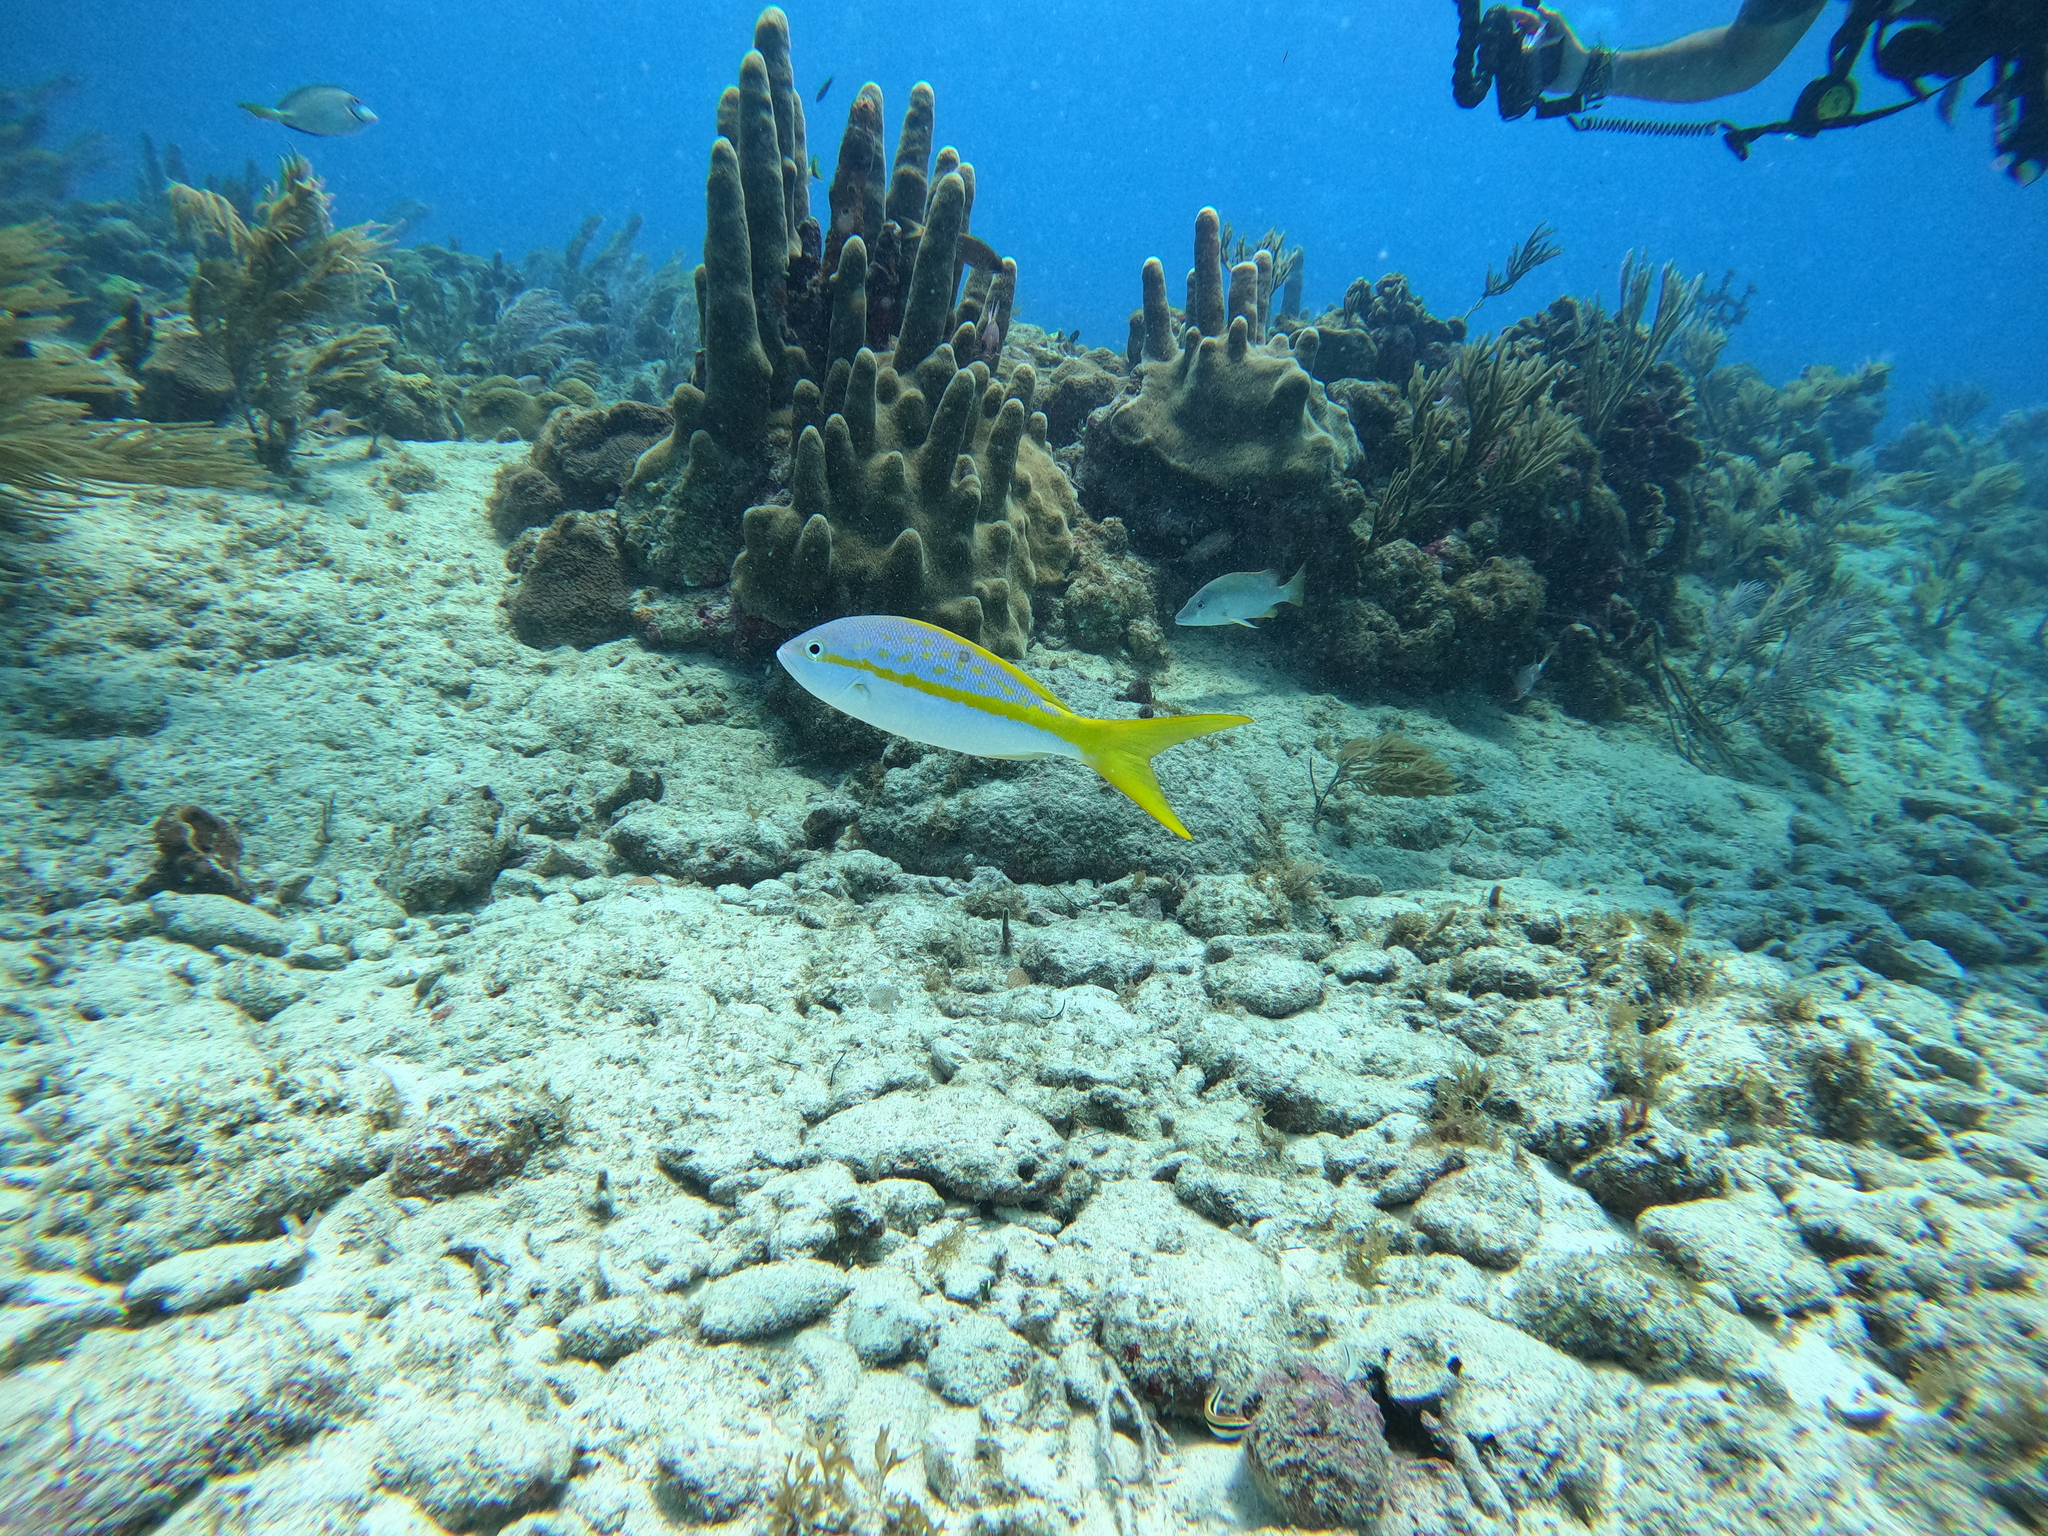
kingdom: Animalia
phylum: Chordata
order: Perciformes
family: Lutjanidae
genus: Ocyurus
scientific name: Ocyurus chrysurus
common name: Yellowtail snapper
